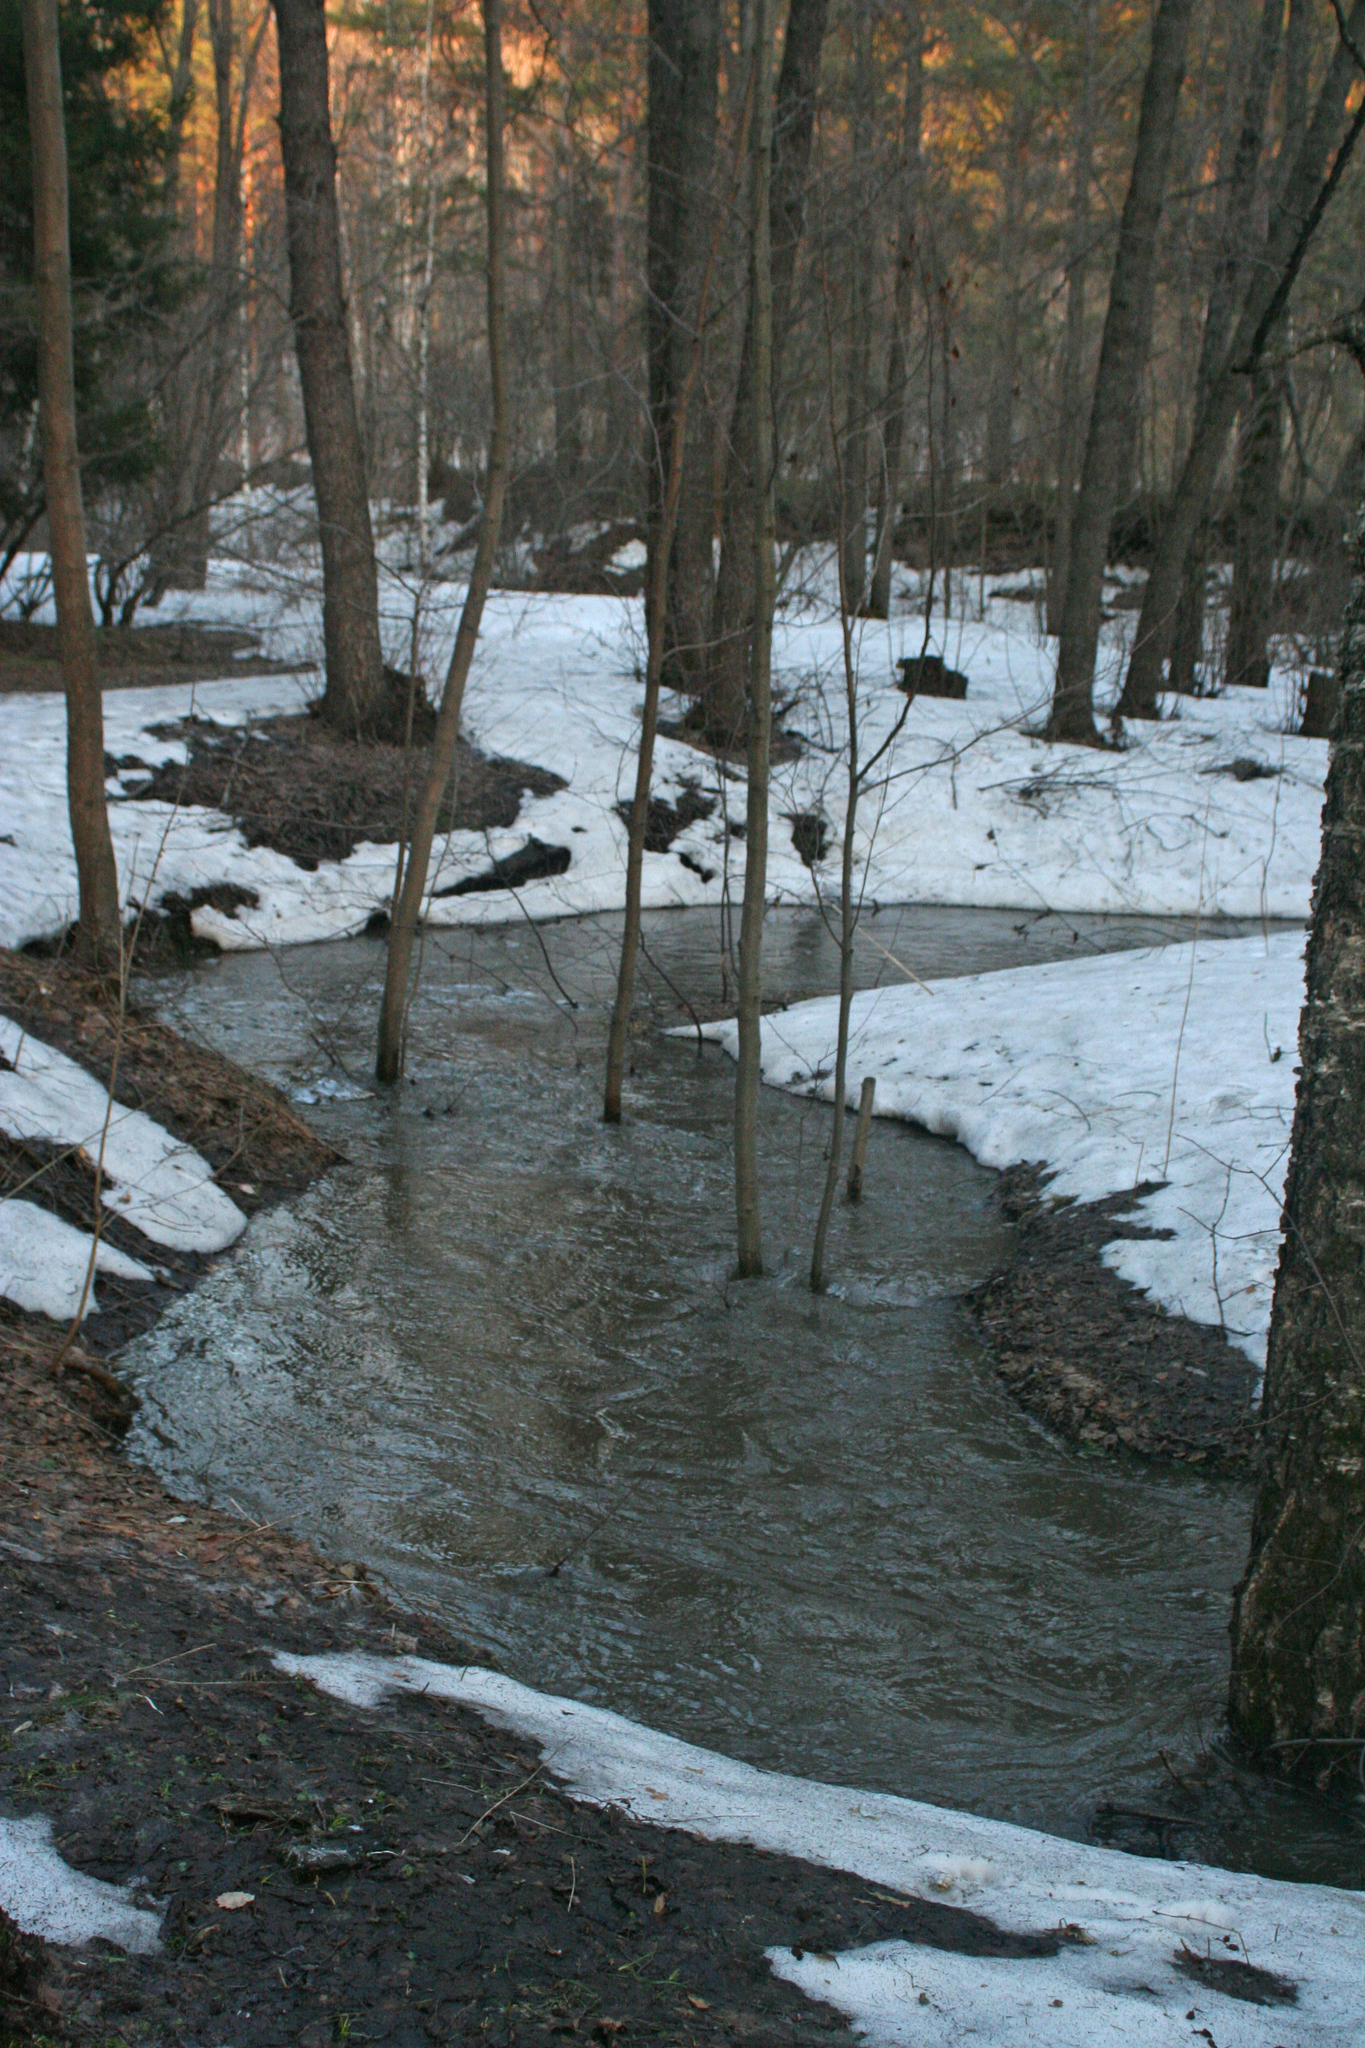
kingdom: Plantae
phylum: Tracheophyta
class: Magnoliopsida
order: Malpighiales
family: Salicaceae
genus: Populus
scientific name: Populus tremula
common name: European aspen
